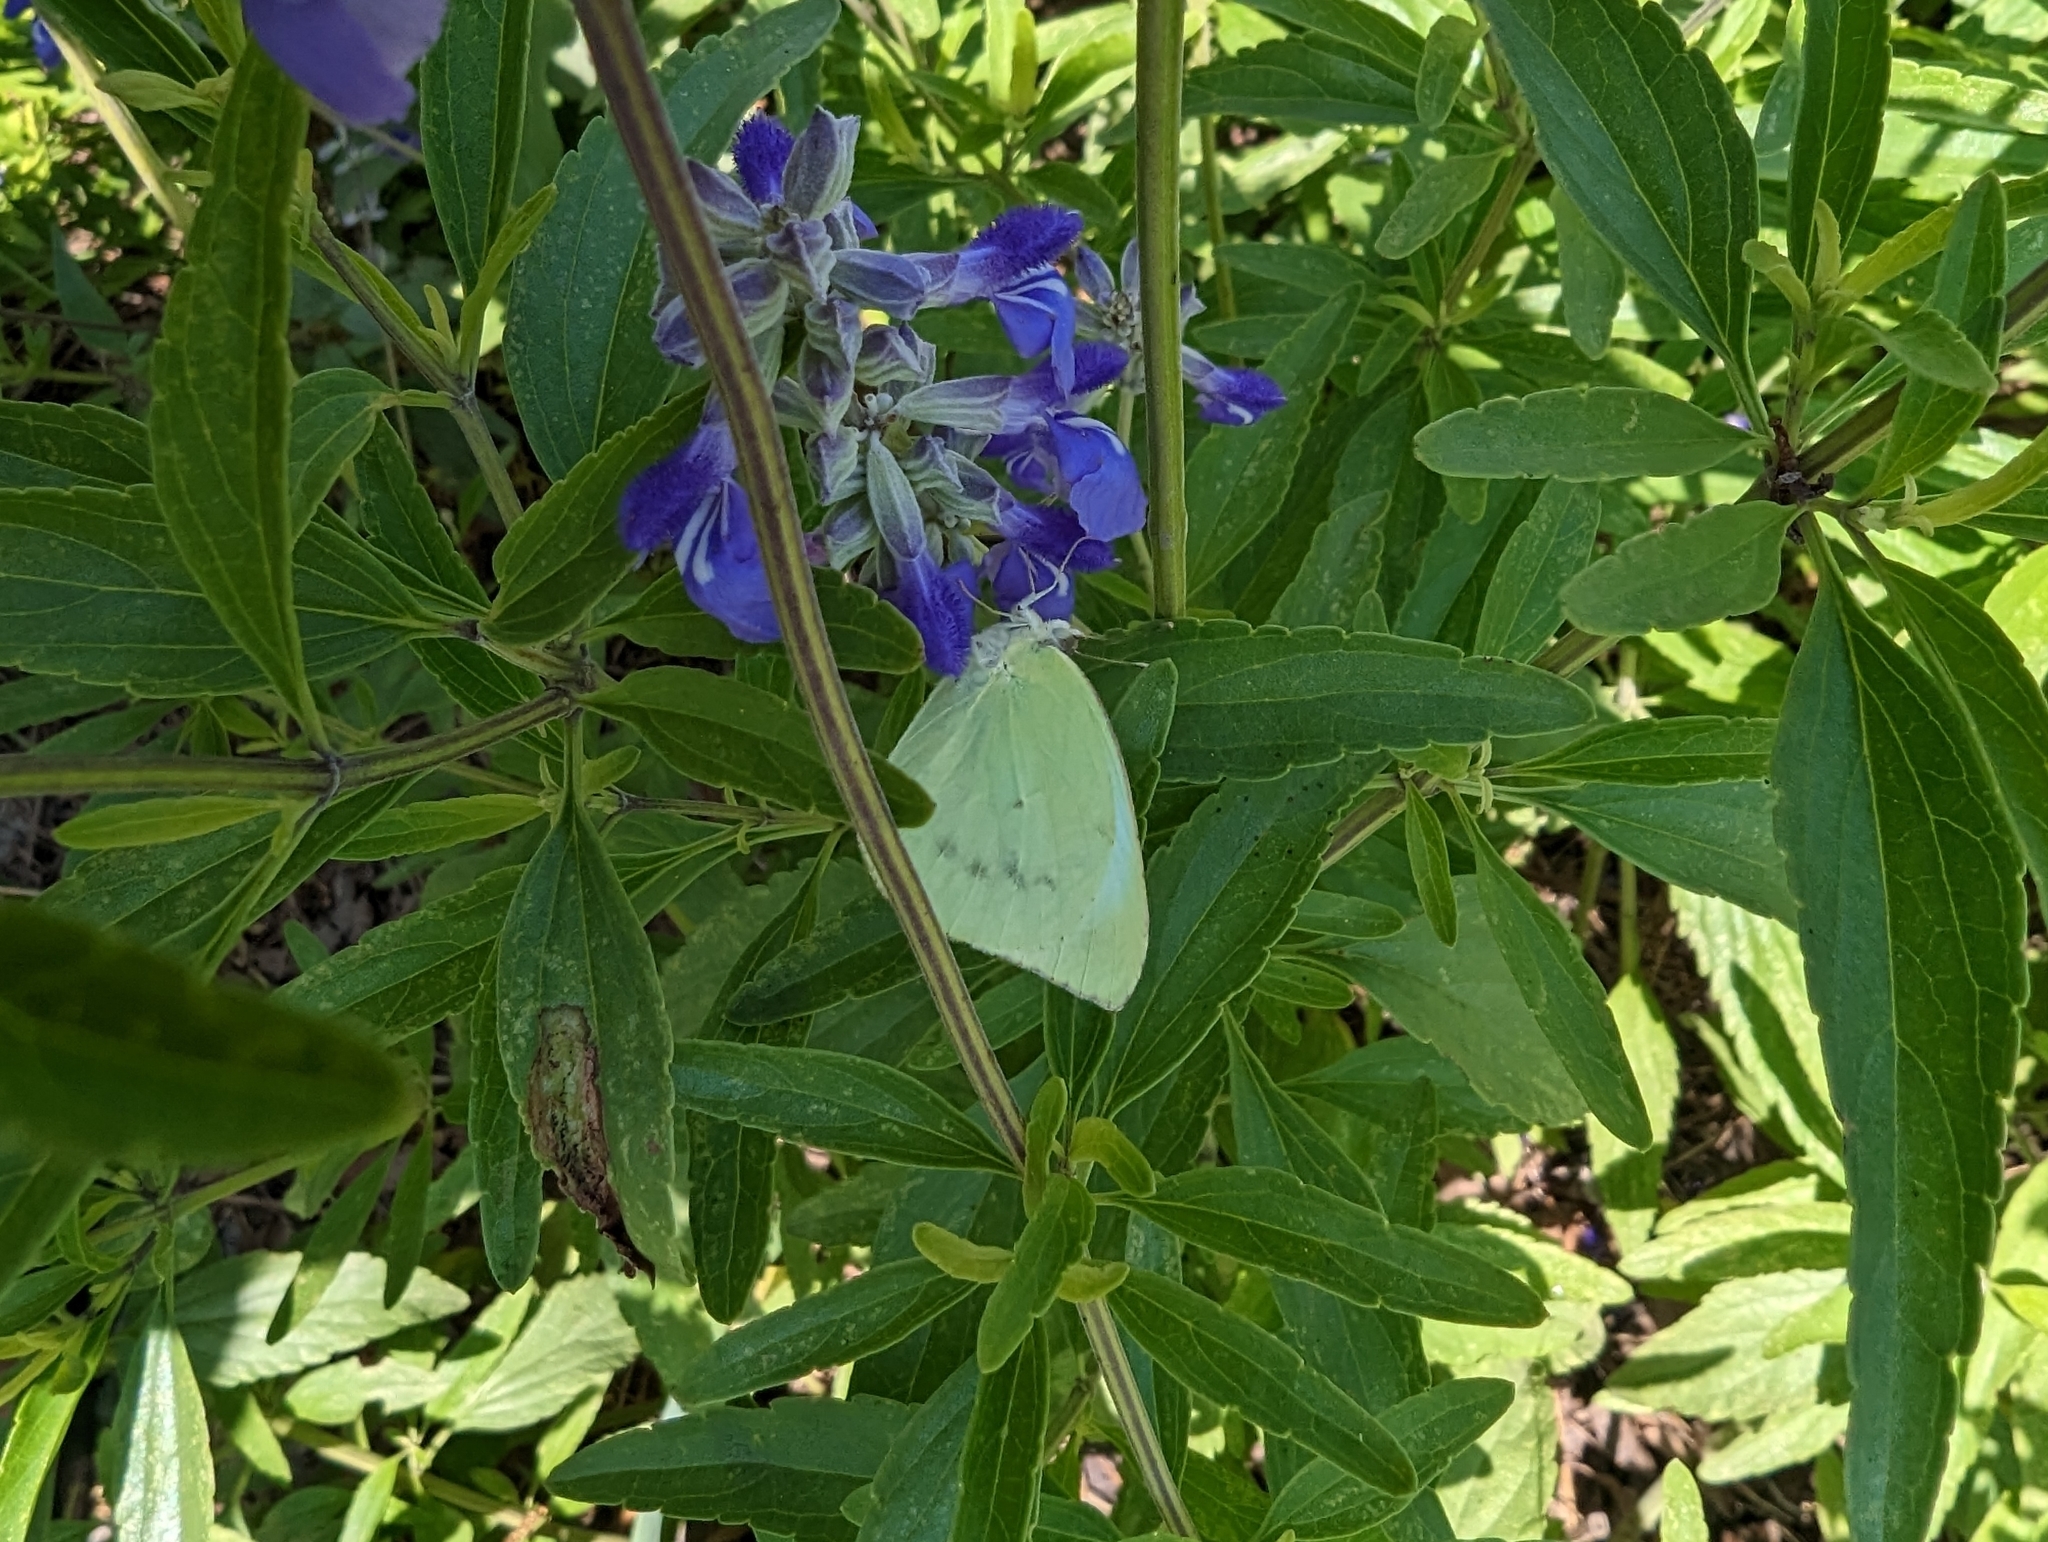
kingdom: Animalia
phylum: Arthropoda
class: Insecta
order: Lepidoptera
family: Pieridae
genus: Kricogonia
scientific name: Kricogonia lyside
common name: Guayacan sulphur,
